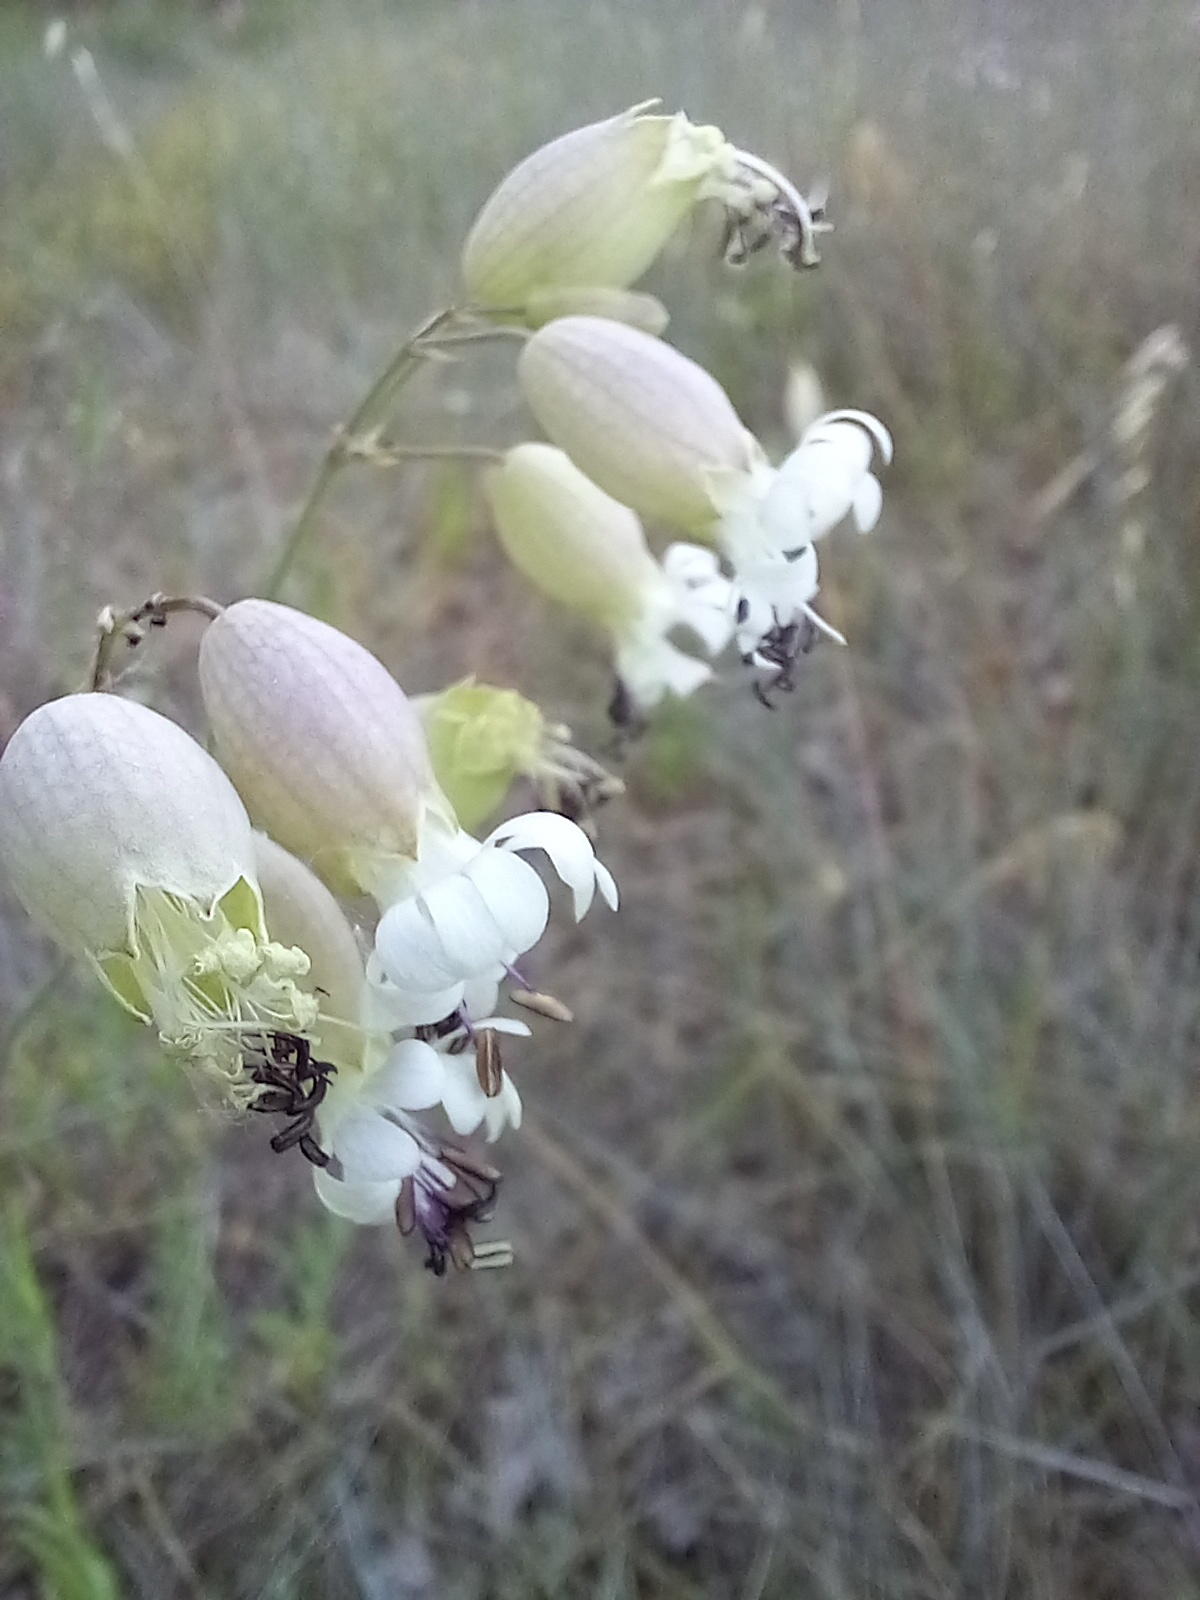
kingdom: Plantae
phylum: Tracheophyta
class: Magnoliopsida
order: Caryophyllales
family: Caryophyllaceae
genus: Silene
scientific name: Silene vulgaris
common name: Bladder campion
